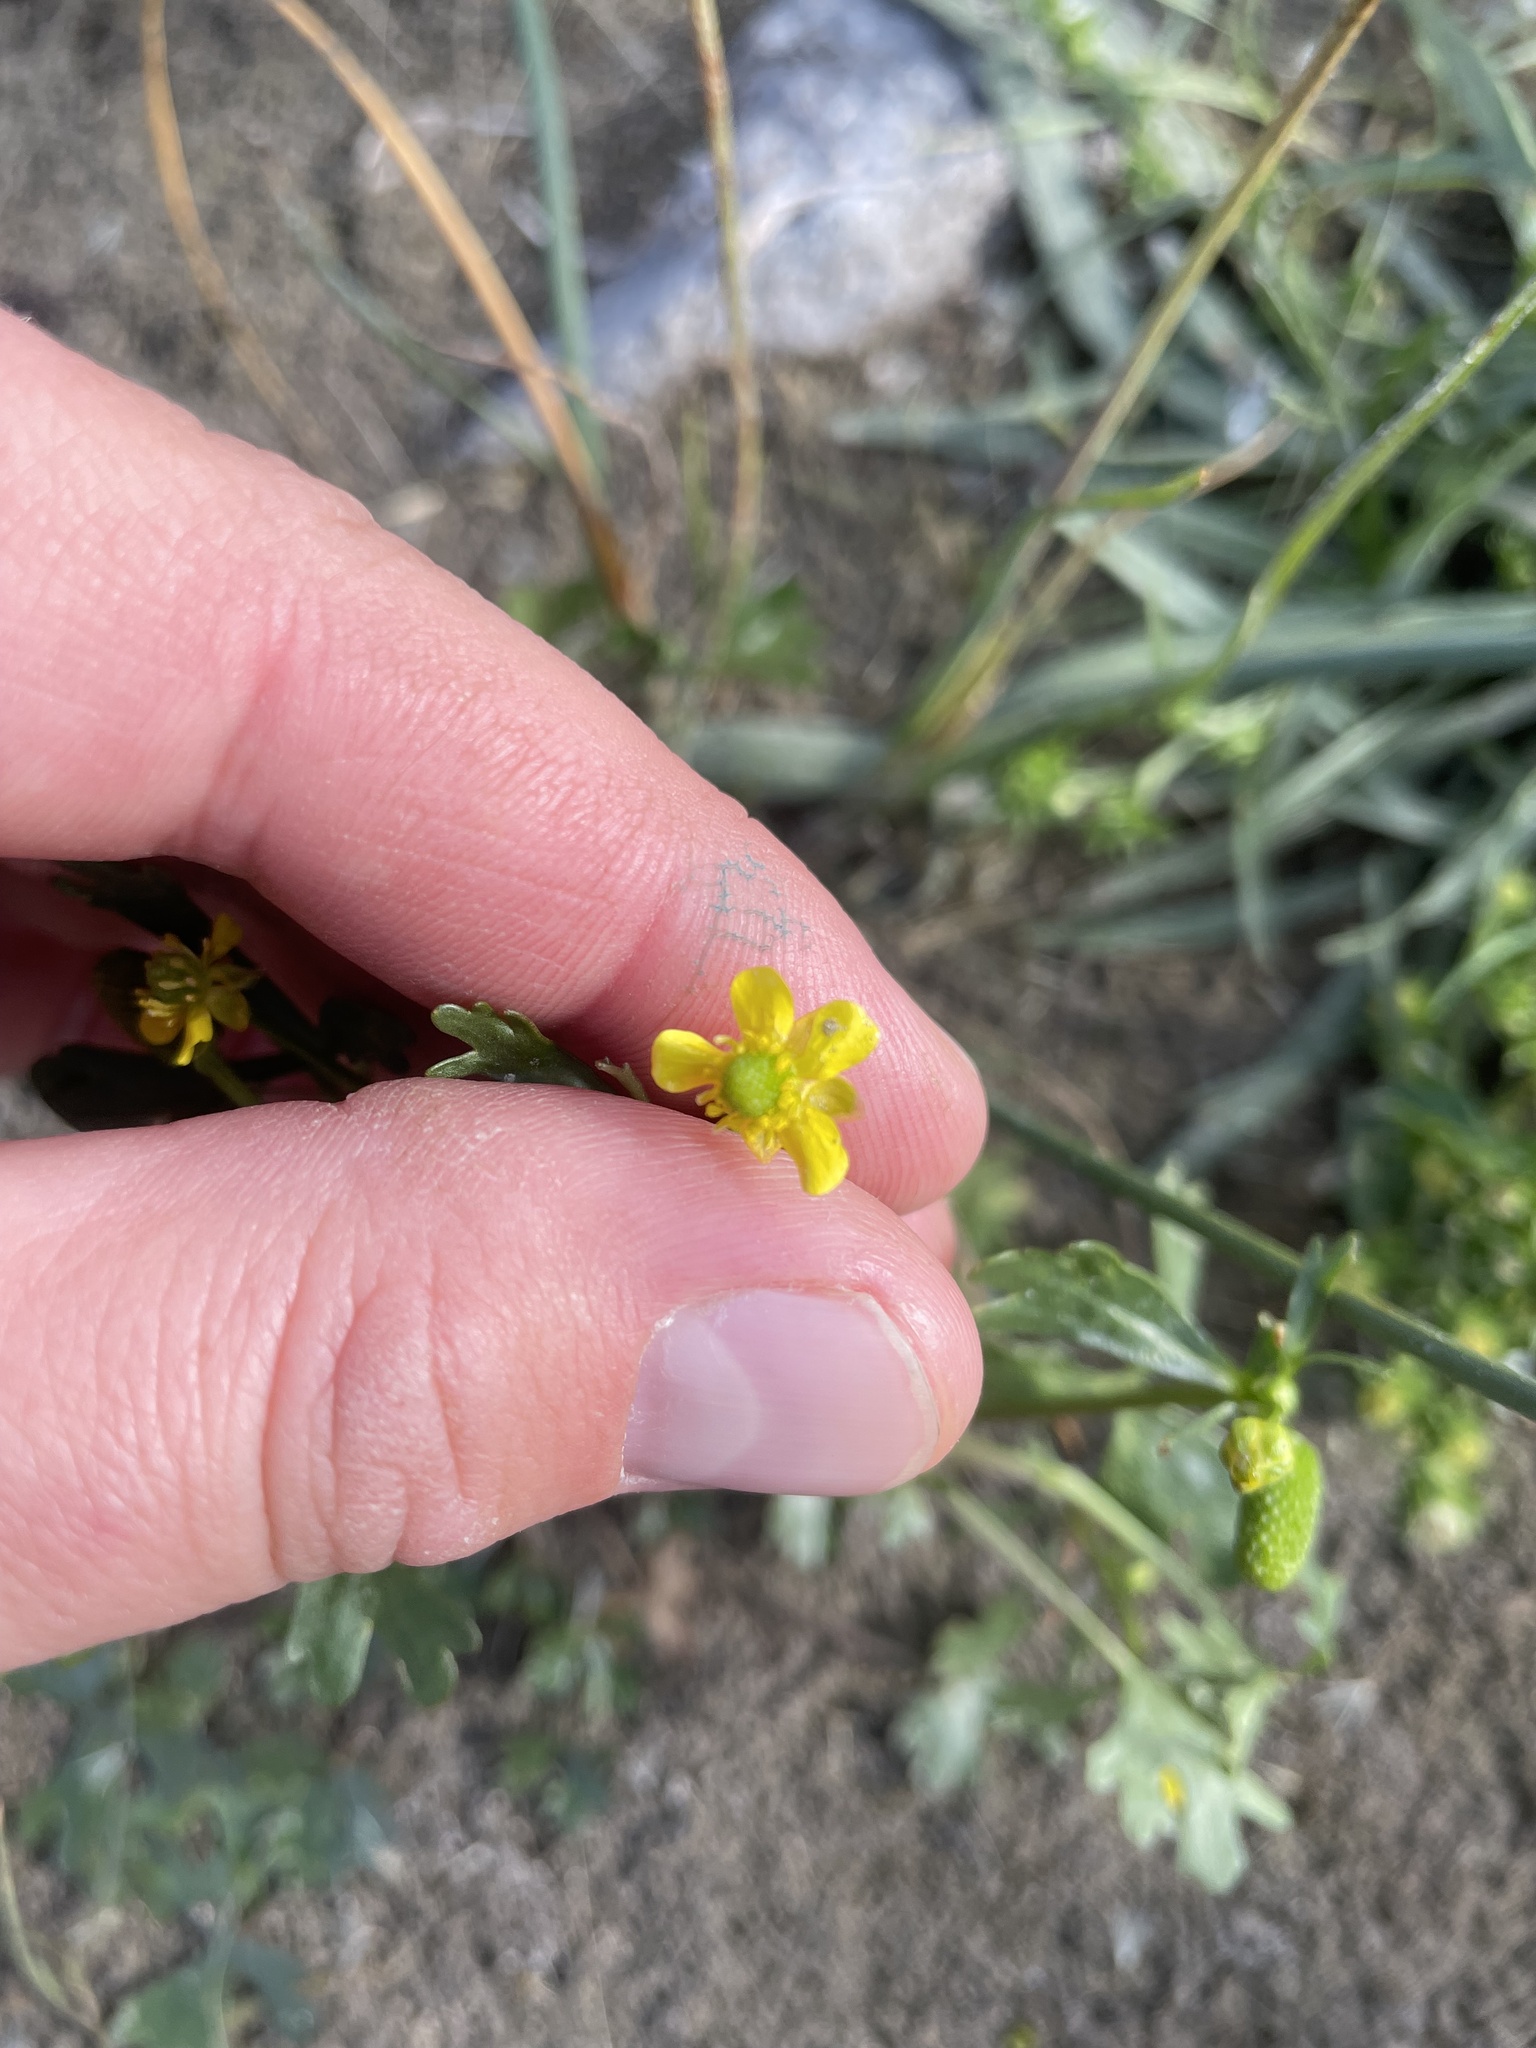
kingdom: Plantae
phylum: Tracheophyta
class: Magnoliopsida
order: Ranunculales
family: Ranunculaceae
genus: Ranunculus
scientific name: Ranunculus sceleratus
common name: Celery-leaved buttercup
